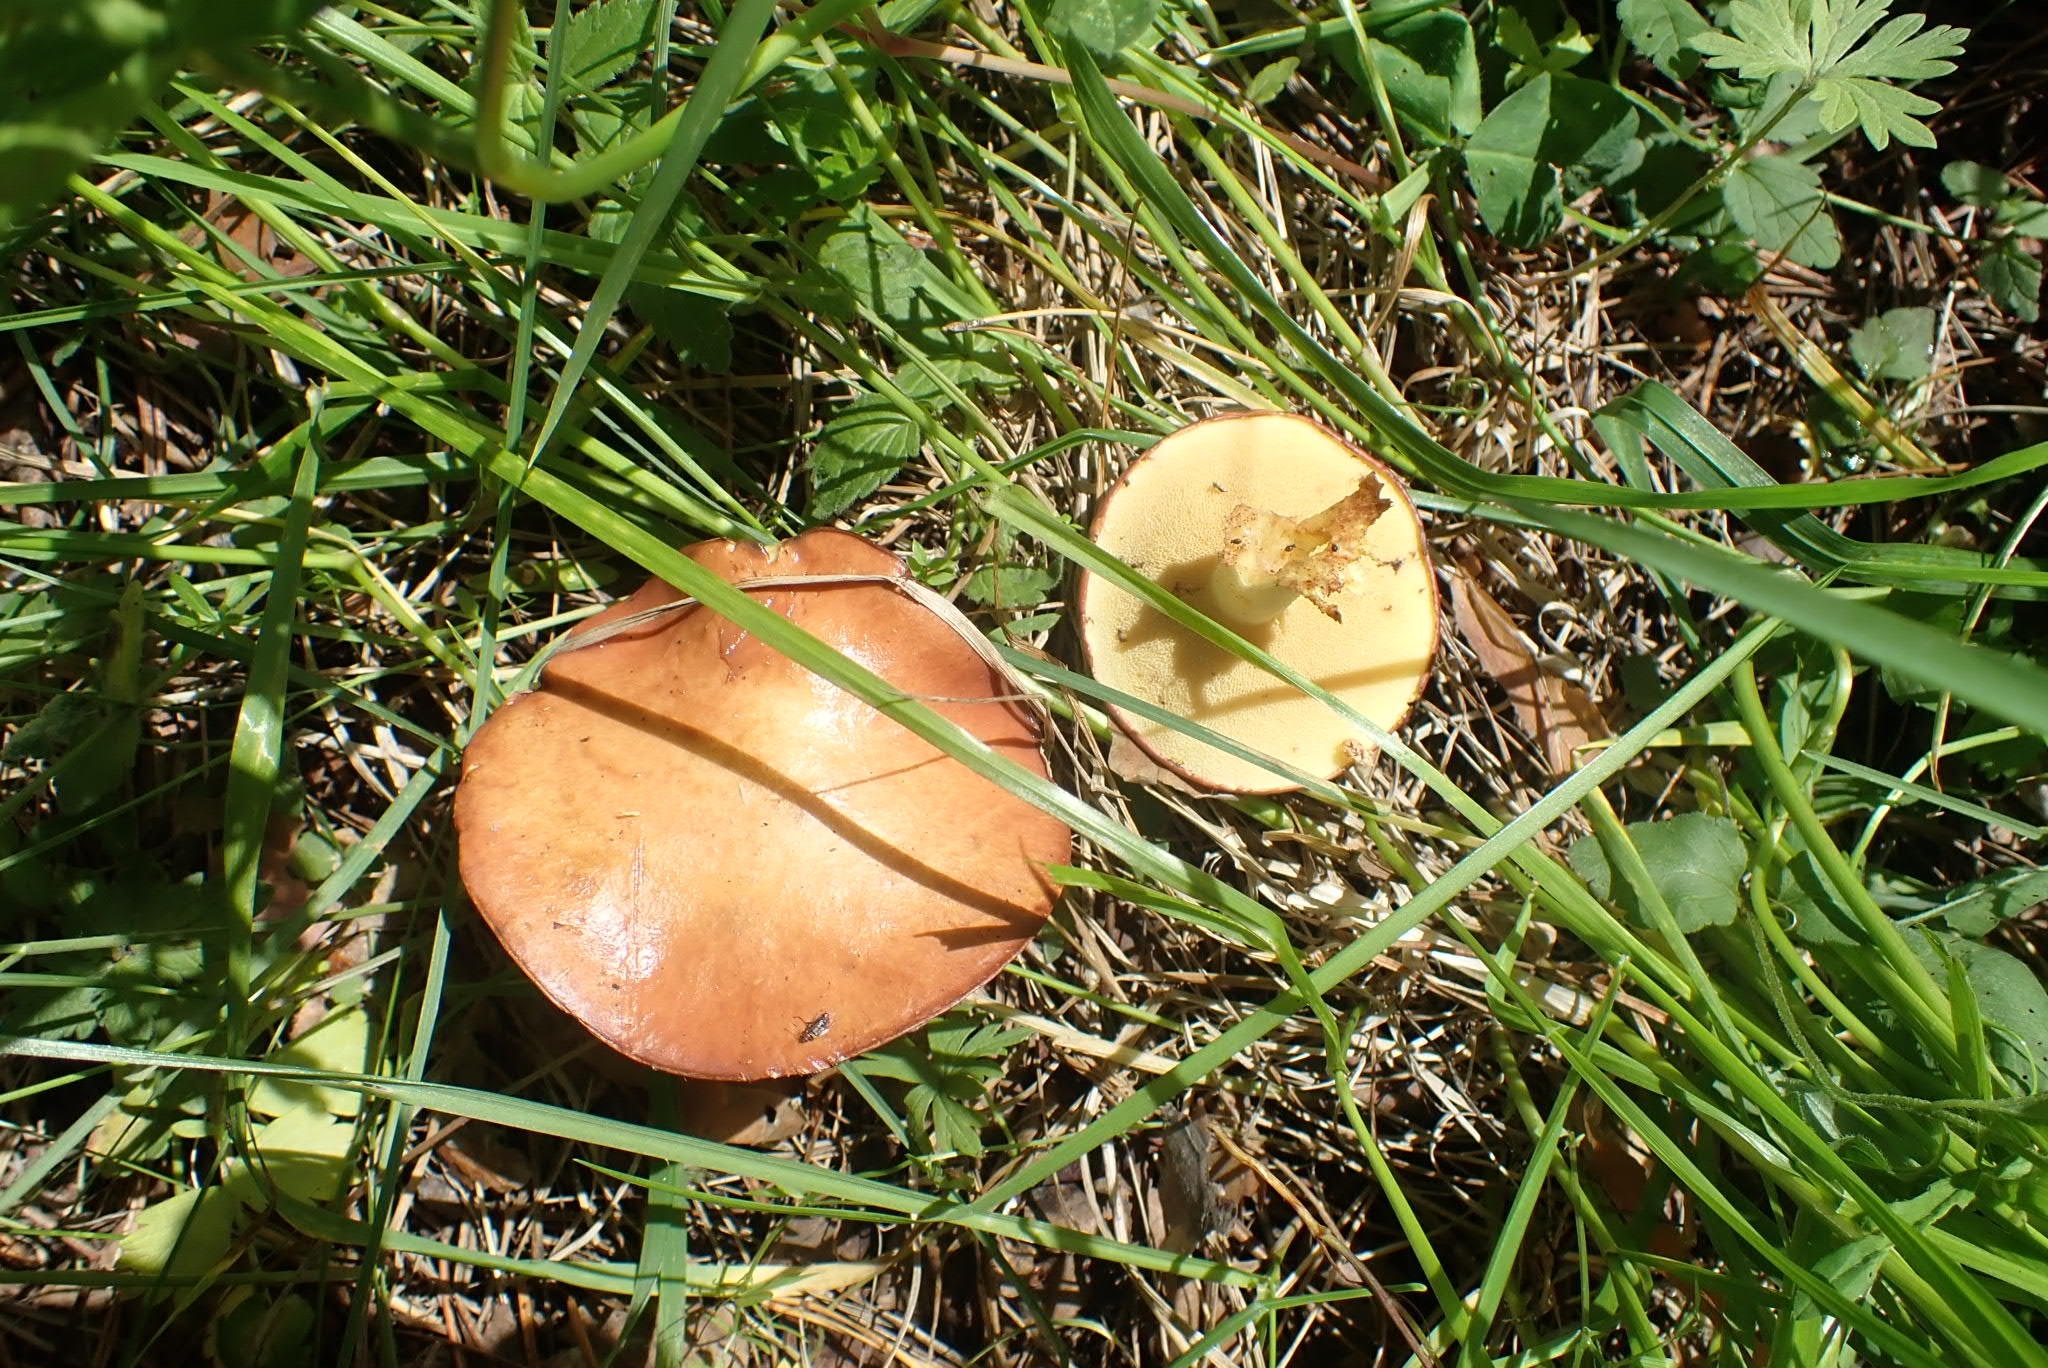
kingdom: Fungi
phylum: Basidiomycota
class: Agaricomycetes
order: Boletales
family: Suillaceae
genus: Suillus
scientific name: Suillus granulatus
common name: Weeping bolete
